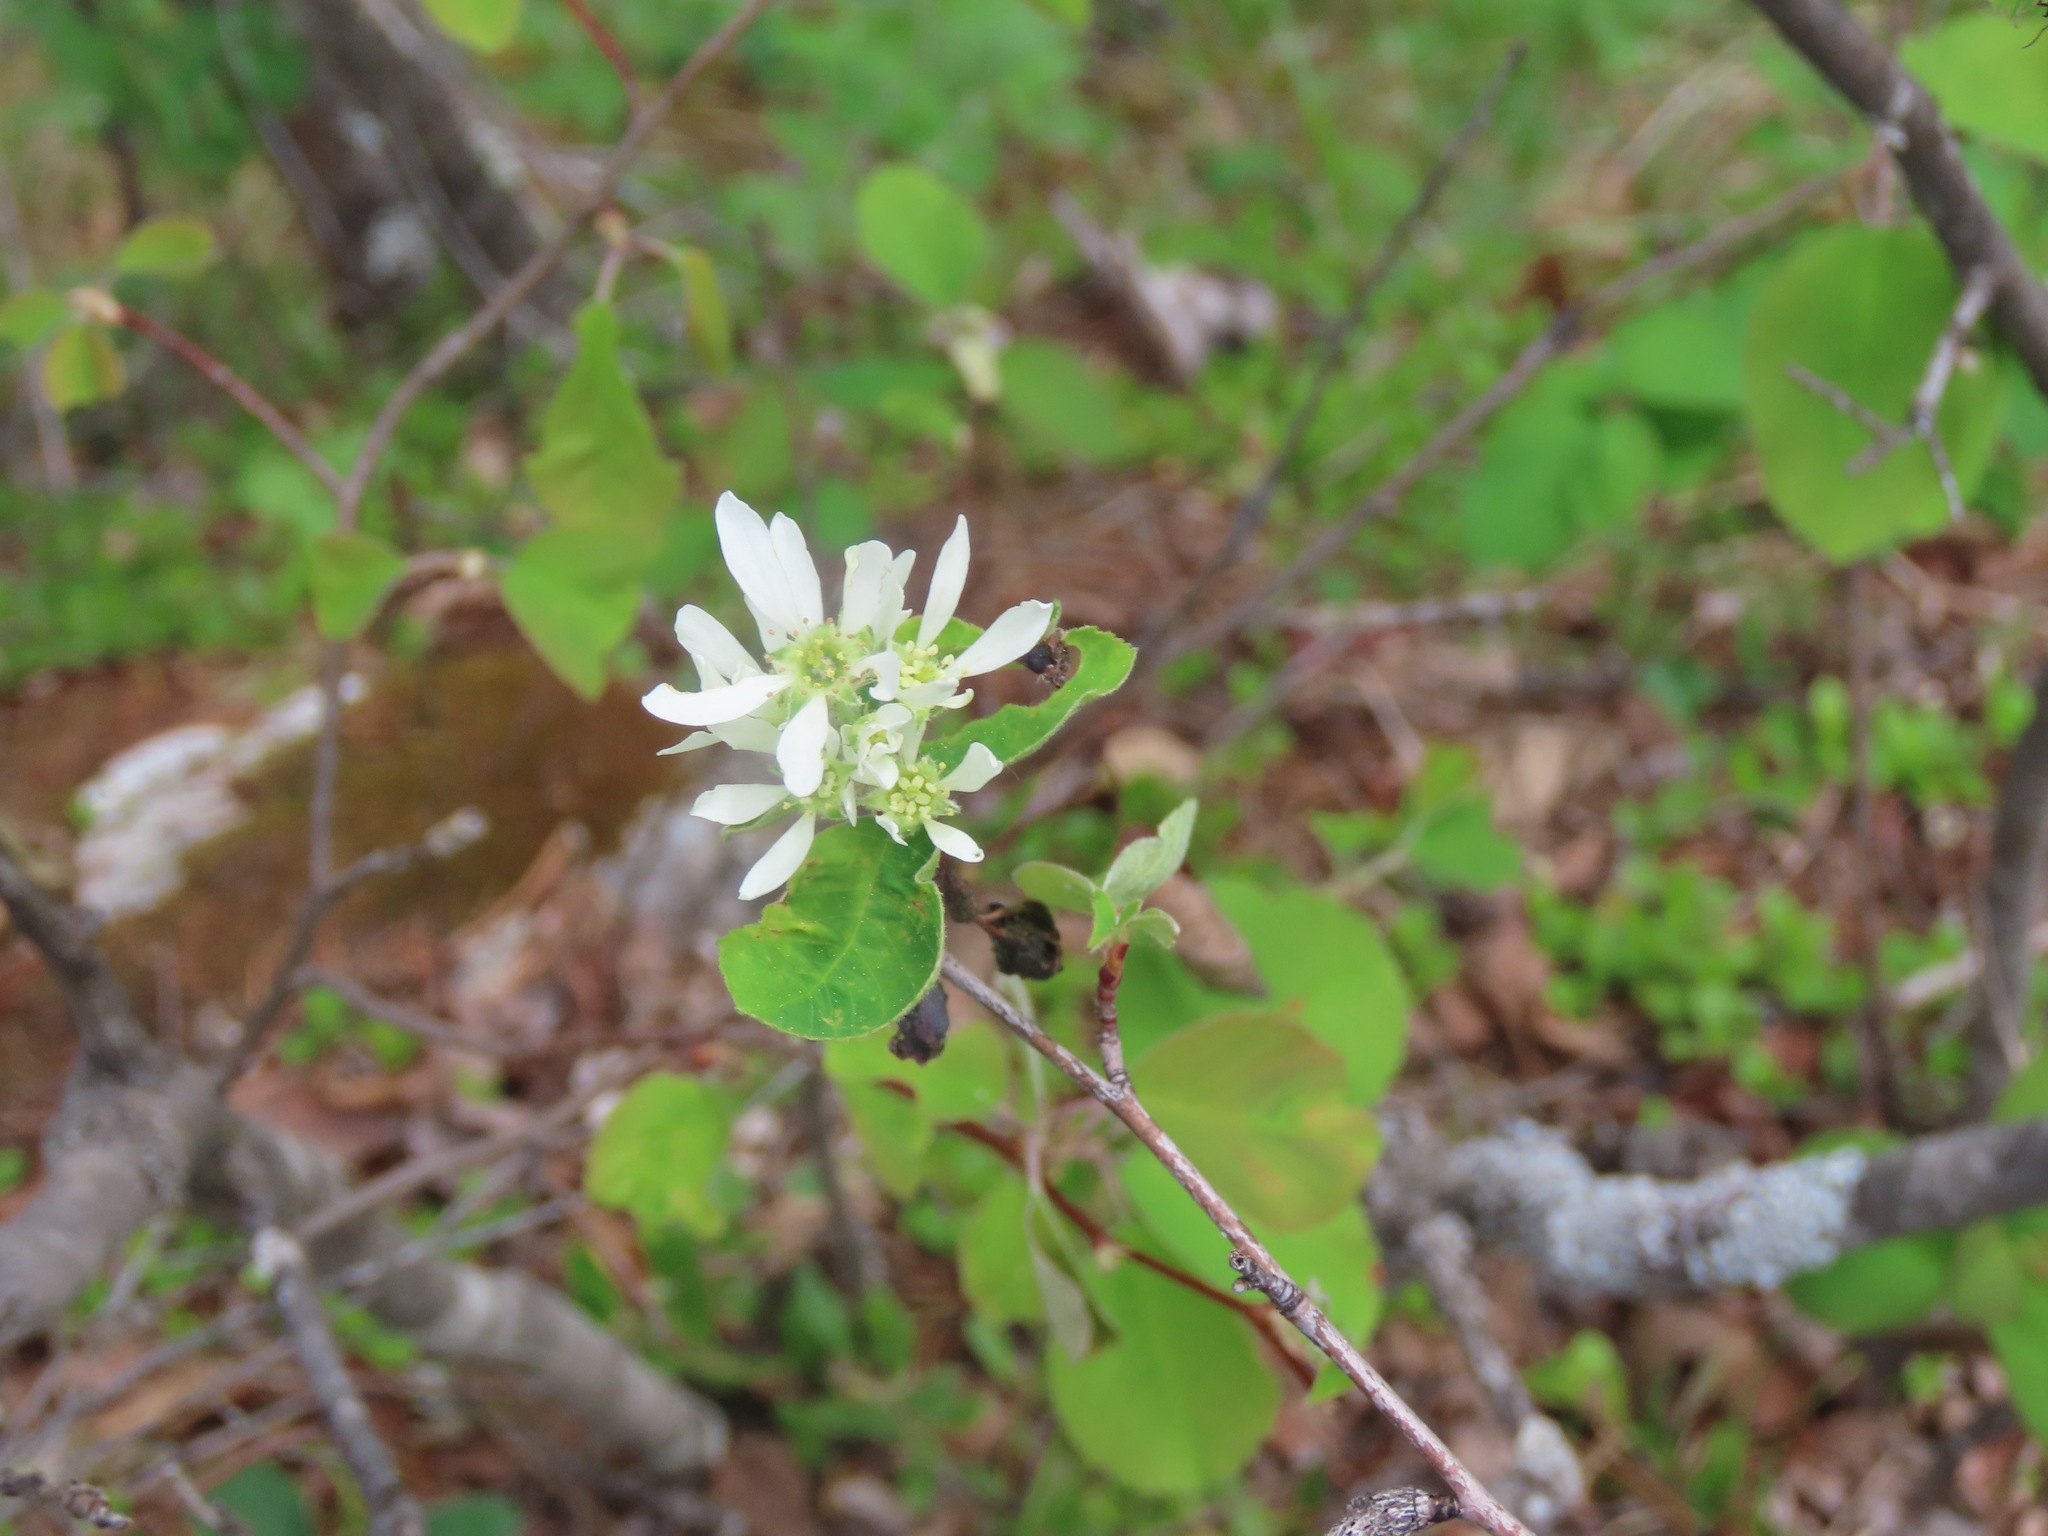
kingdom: Plantae
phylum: Tracheophyta
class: Magnoliopsida
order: Rosales
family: Rosaceae
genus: Amelanchier
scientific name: Amelanchier alnifolia
